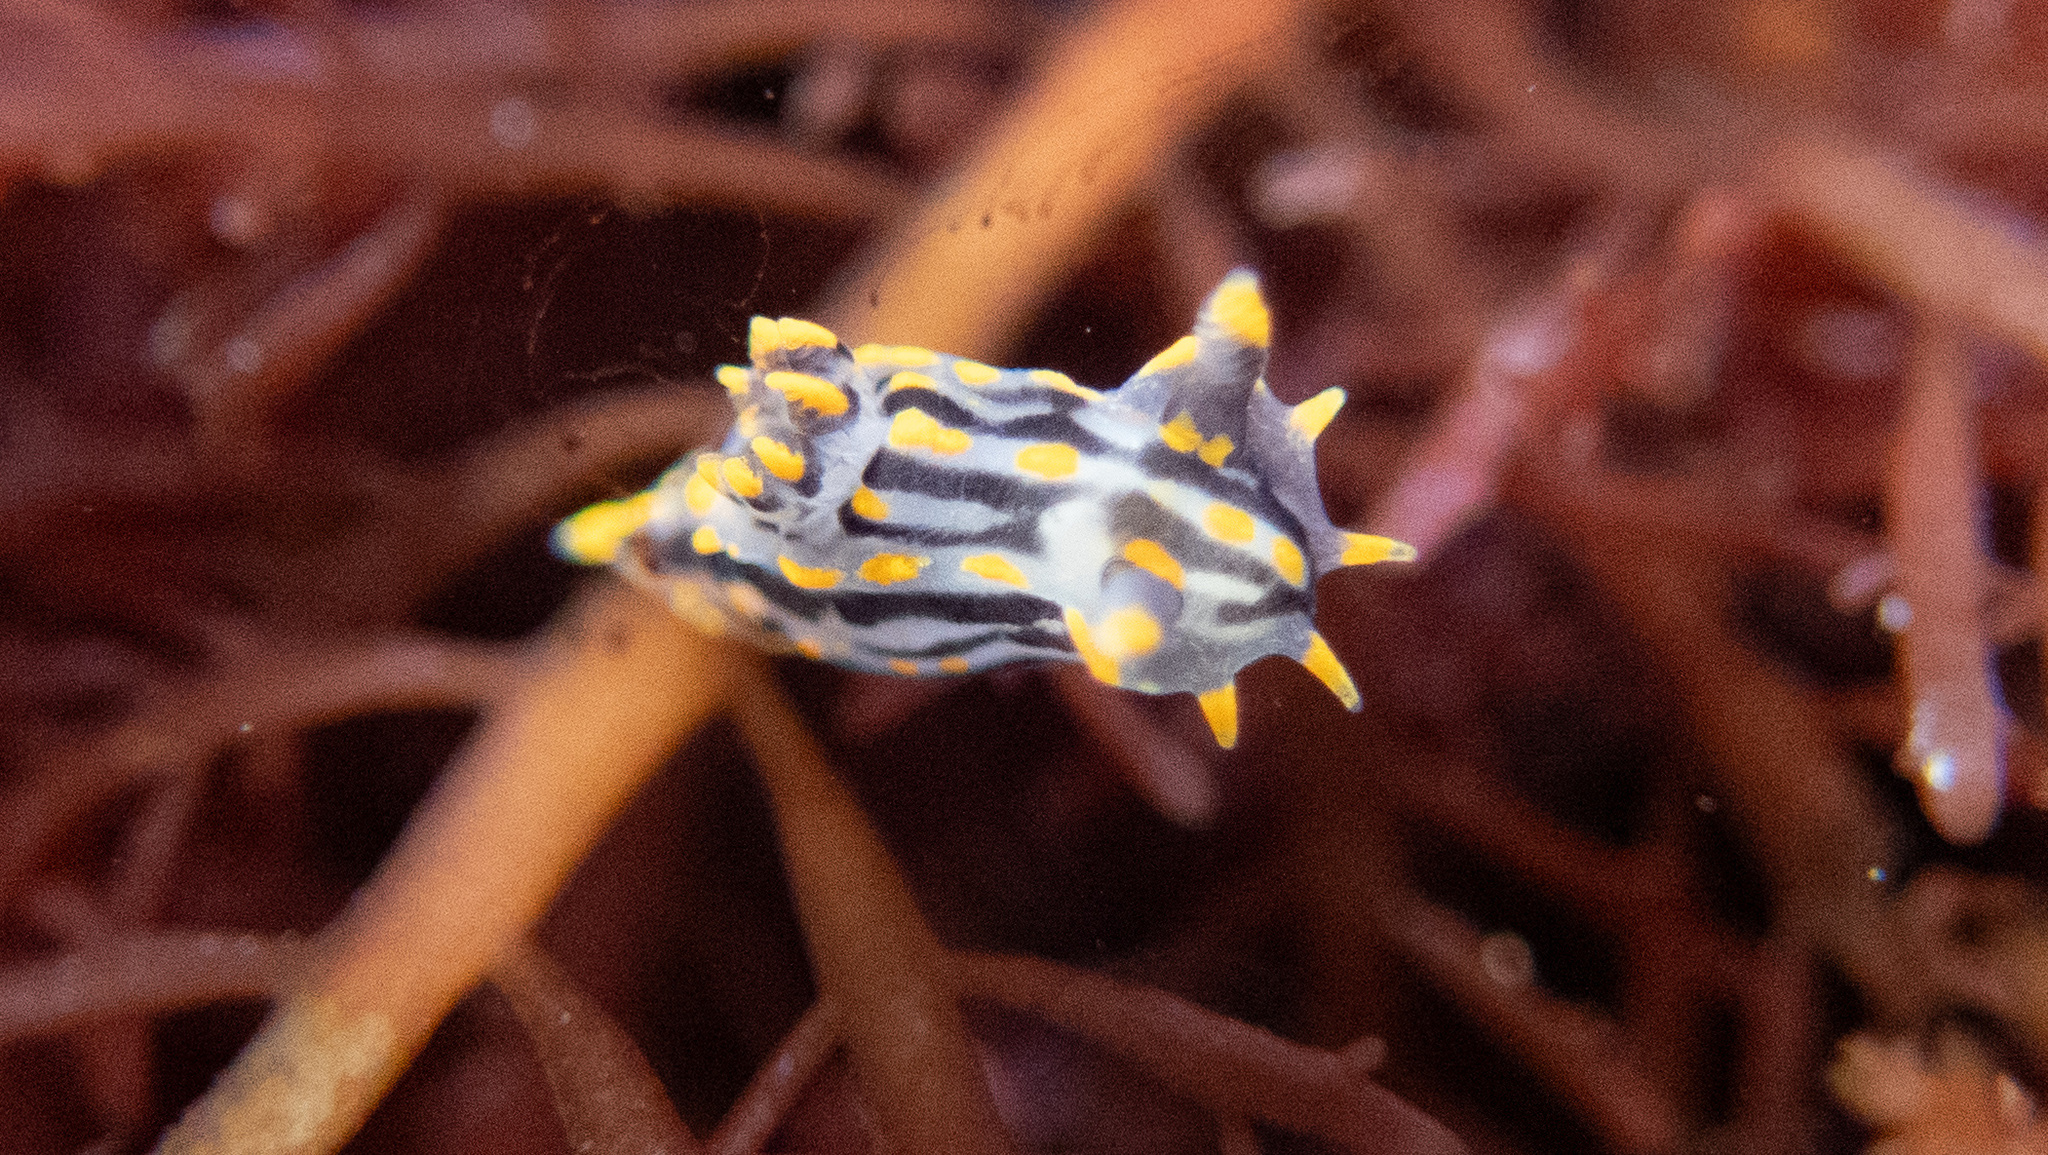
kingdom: Animalia
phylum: Mollusca
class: Gastropoda
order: Nudibranchia
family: Polyceridae
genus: Polycera
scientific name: Polycera atra
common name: Orange-spike polycera
